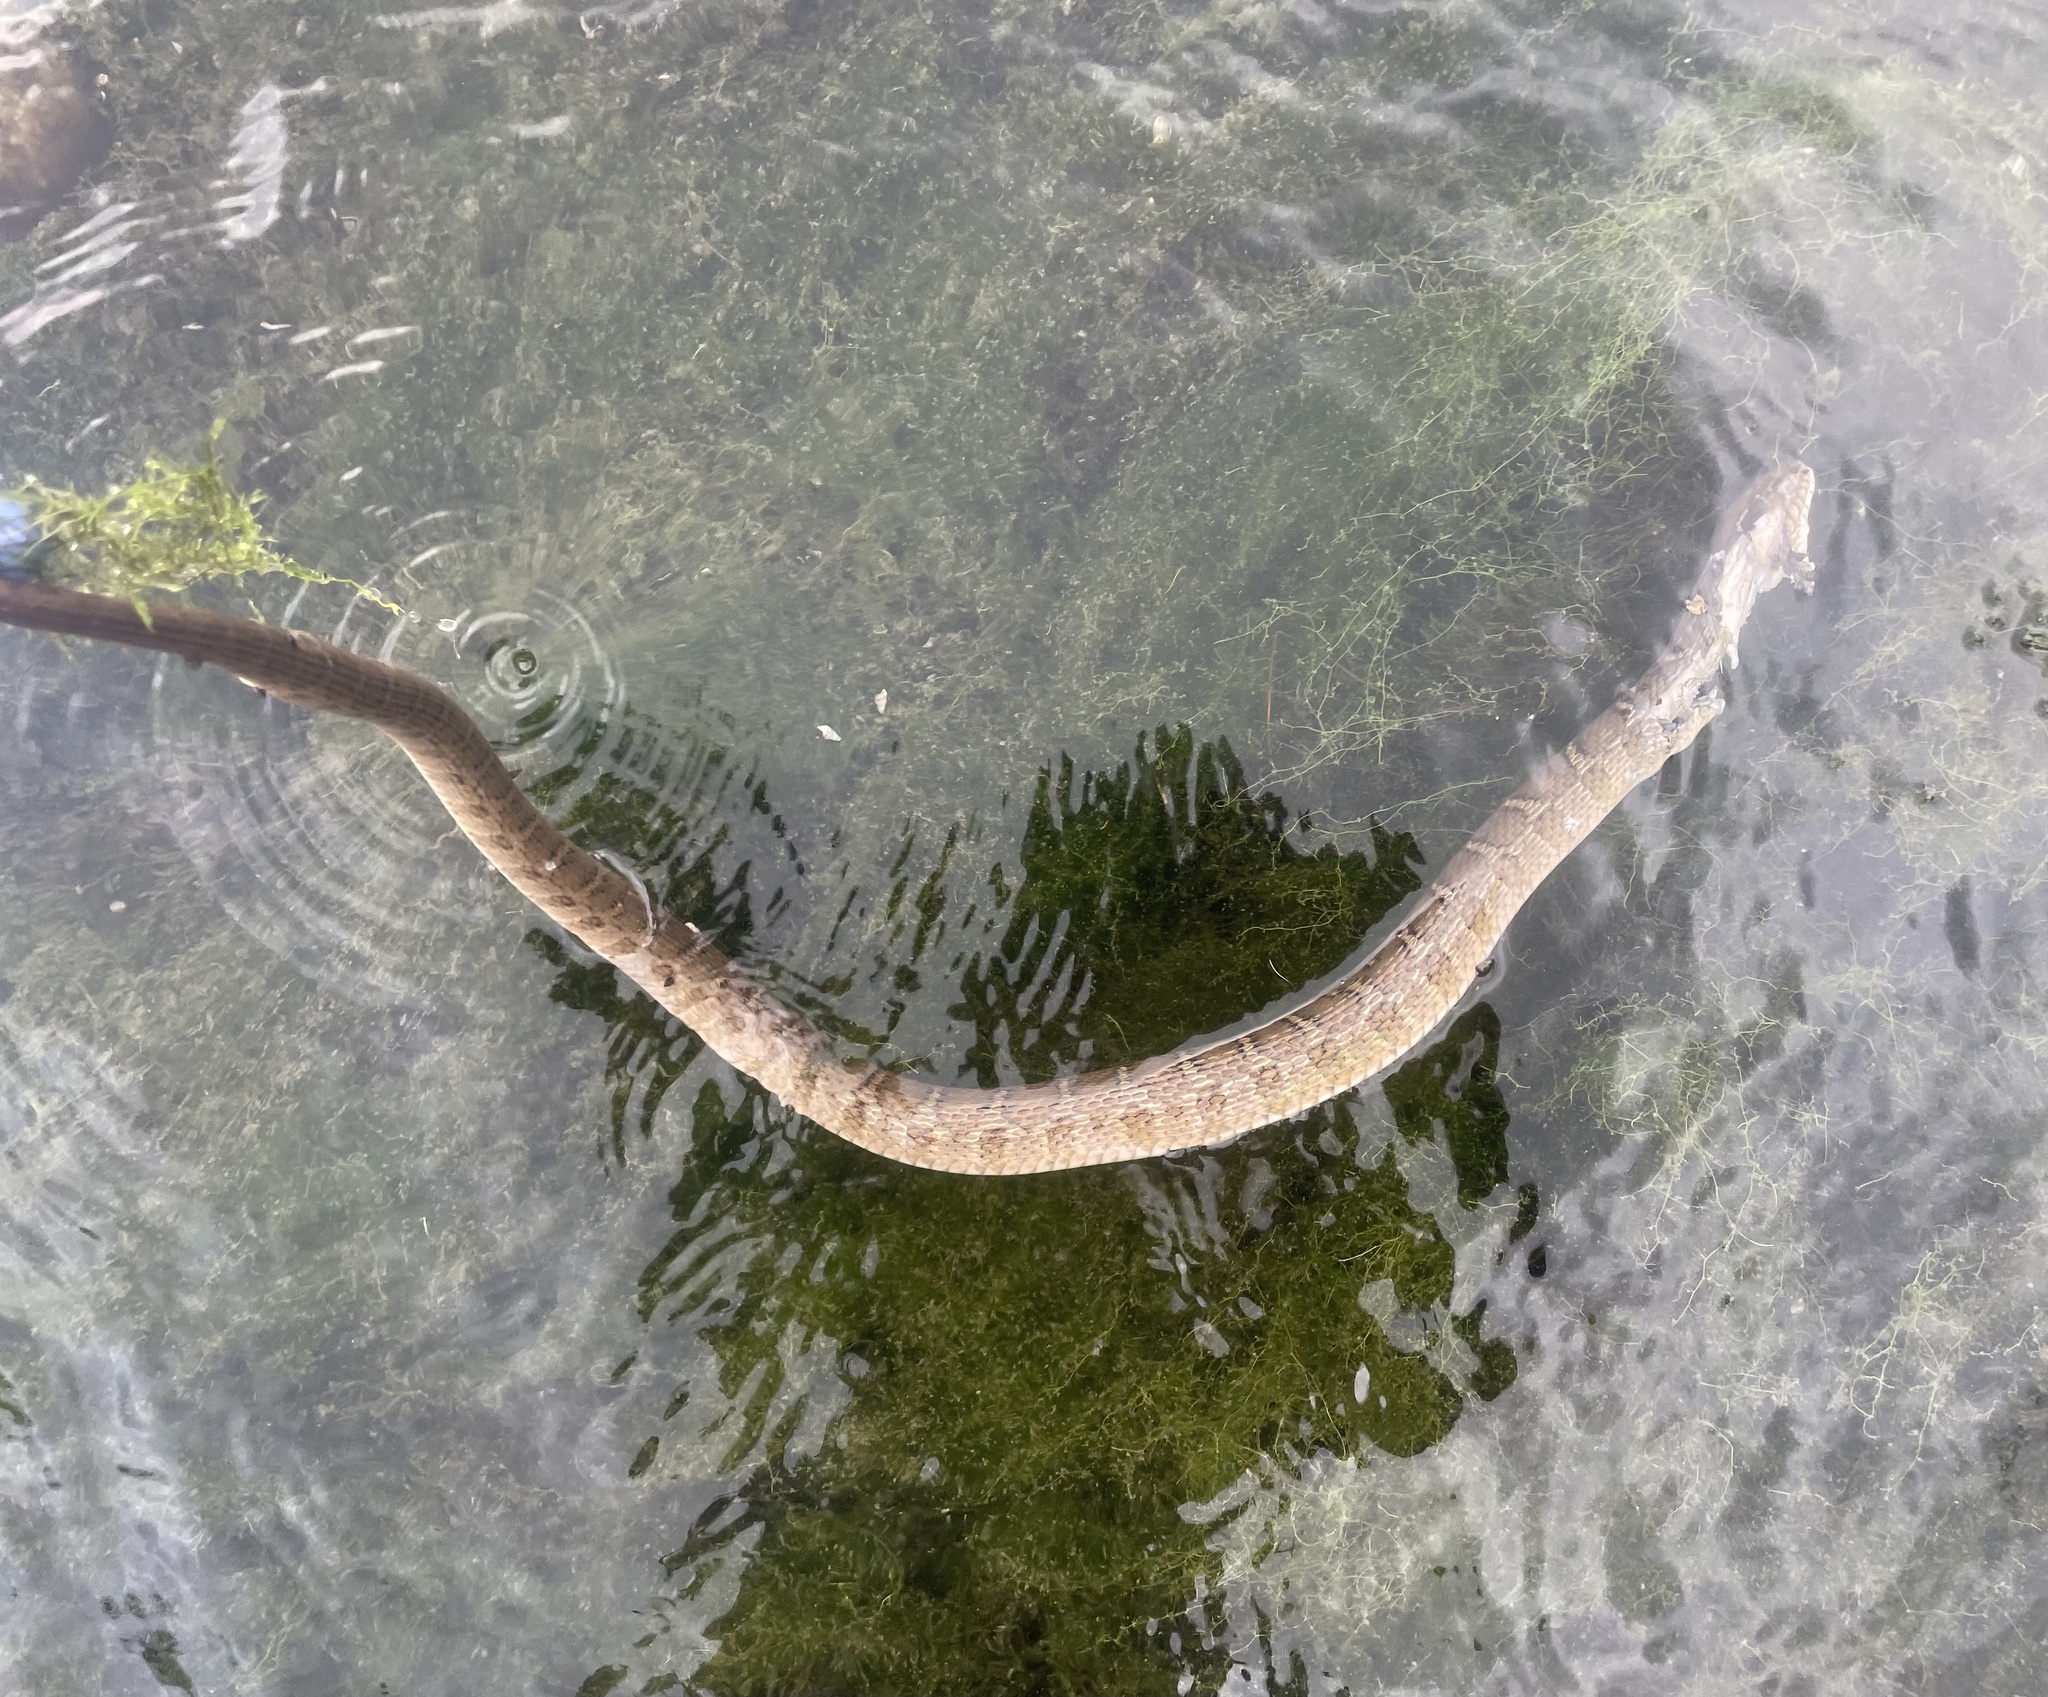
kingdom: Animalia
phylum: Chordata
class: Squamata
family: Colubridae
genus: Nerodia
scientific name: Nerodia erythrogaster
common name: Plainbelly water snake
